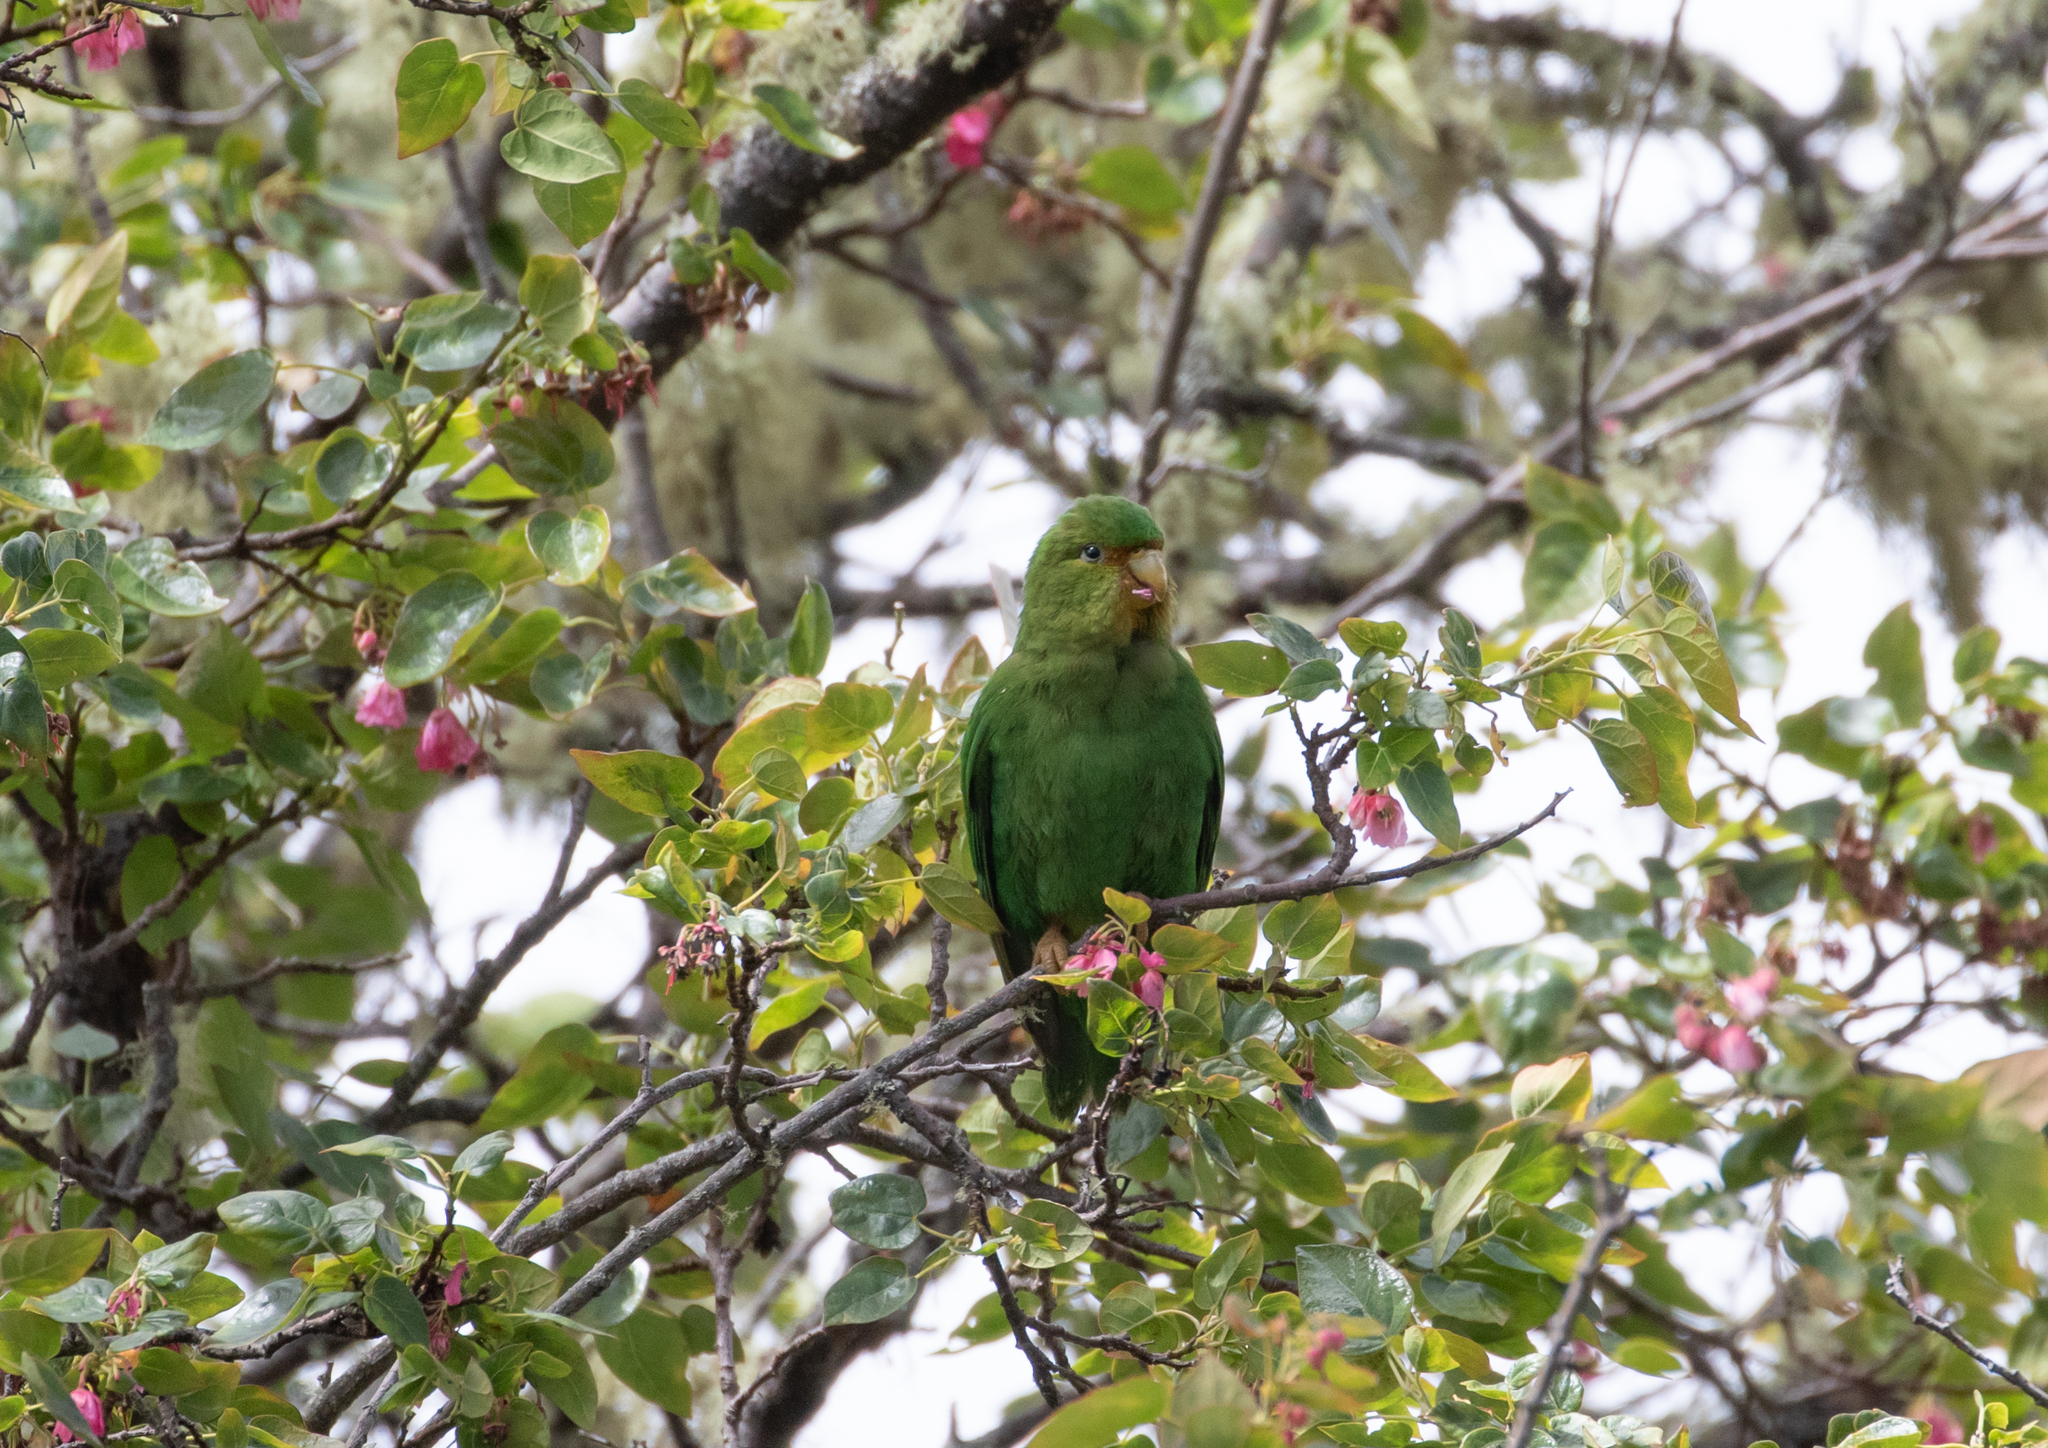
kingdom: Animalia
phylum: Chordata
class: Aves
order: Psittaciformes
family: Psittacidae
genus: Bolborhynchus
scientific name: Bolborhynchus ferrugineifrons
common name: Rufous-fronted parakeet
